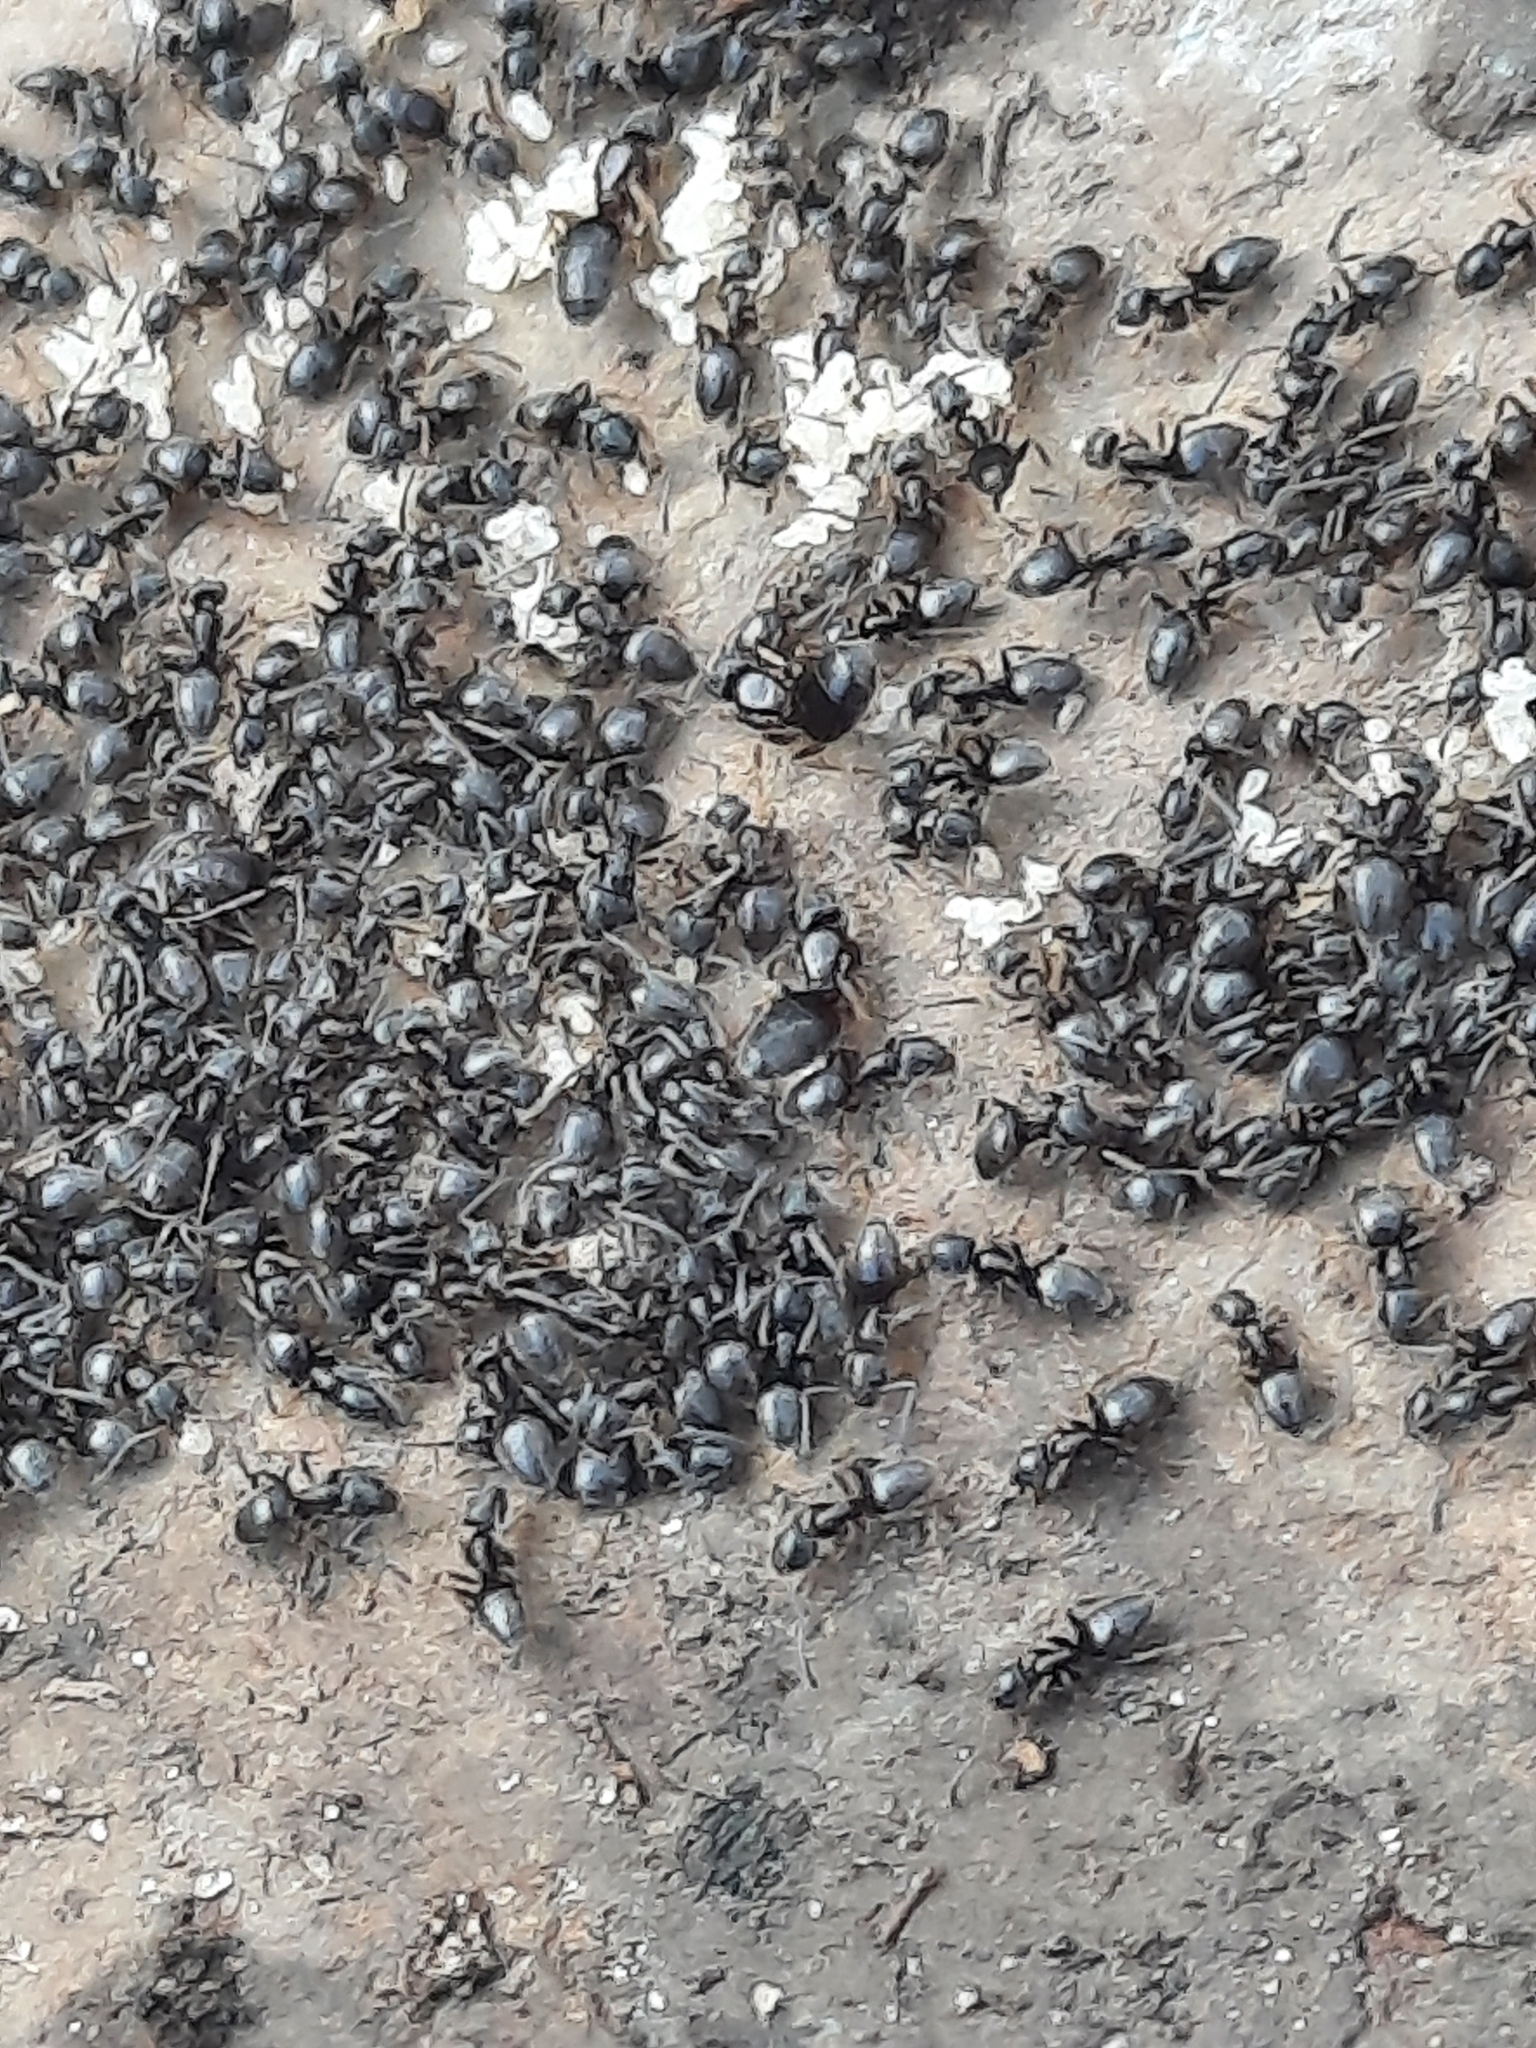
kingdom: Animalia
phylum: Arthropoda
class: Insecta
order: Hymenoptera
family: Formicidae
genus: Tapinoma
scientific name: Tapinoma sessile
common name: Odorous house ant
